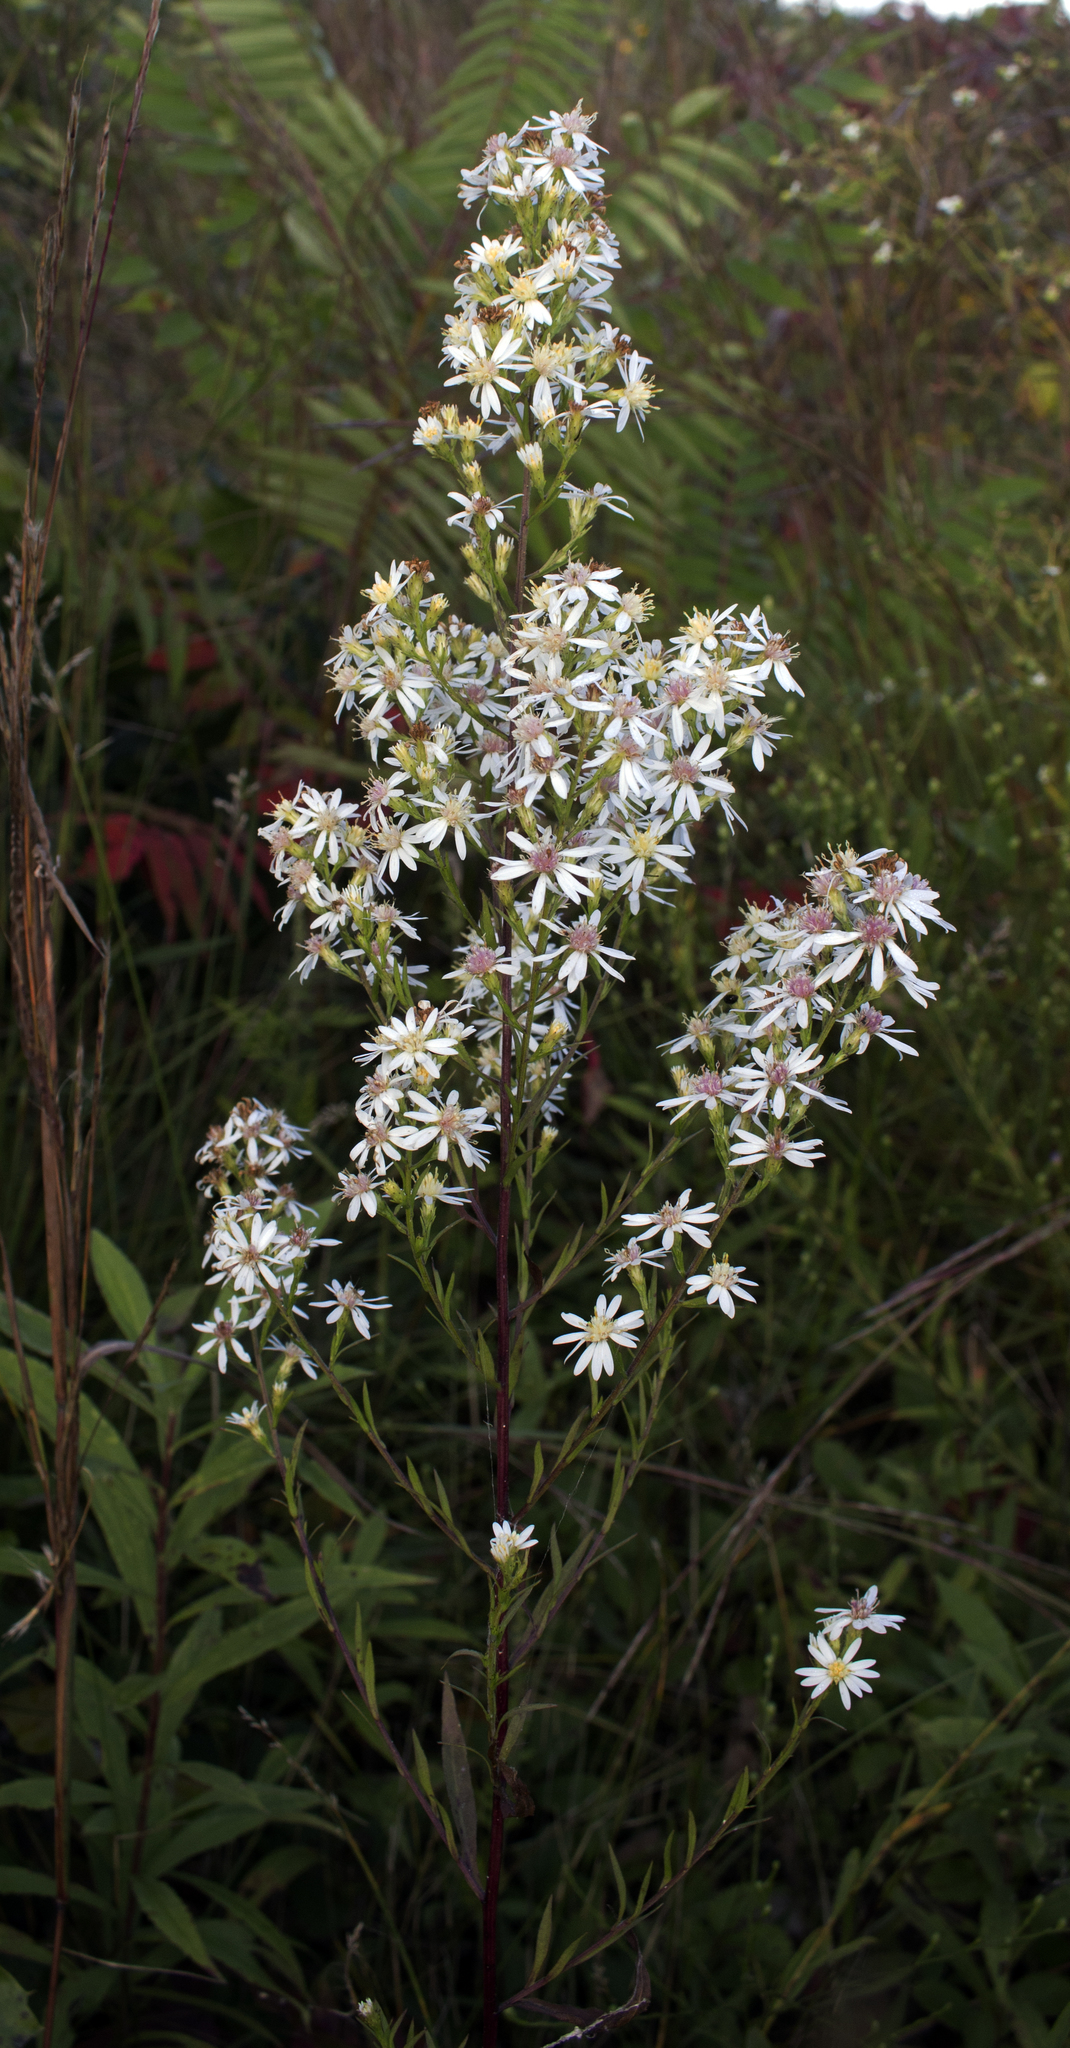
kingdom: Plantae
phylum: Tracheophyta
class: Magnoliopsida
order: Asterales
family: Asteraceae
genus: Symphyotrichum
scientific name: Symphyotrichum urophyllum
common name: Arrow-leaved aster
